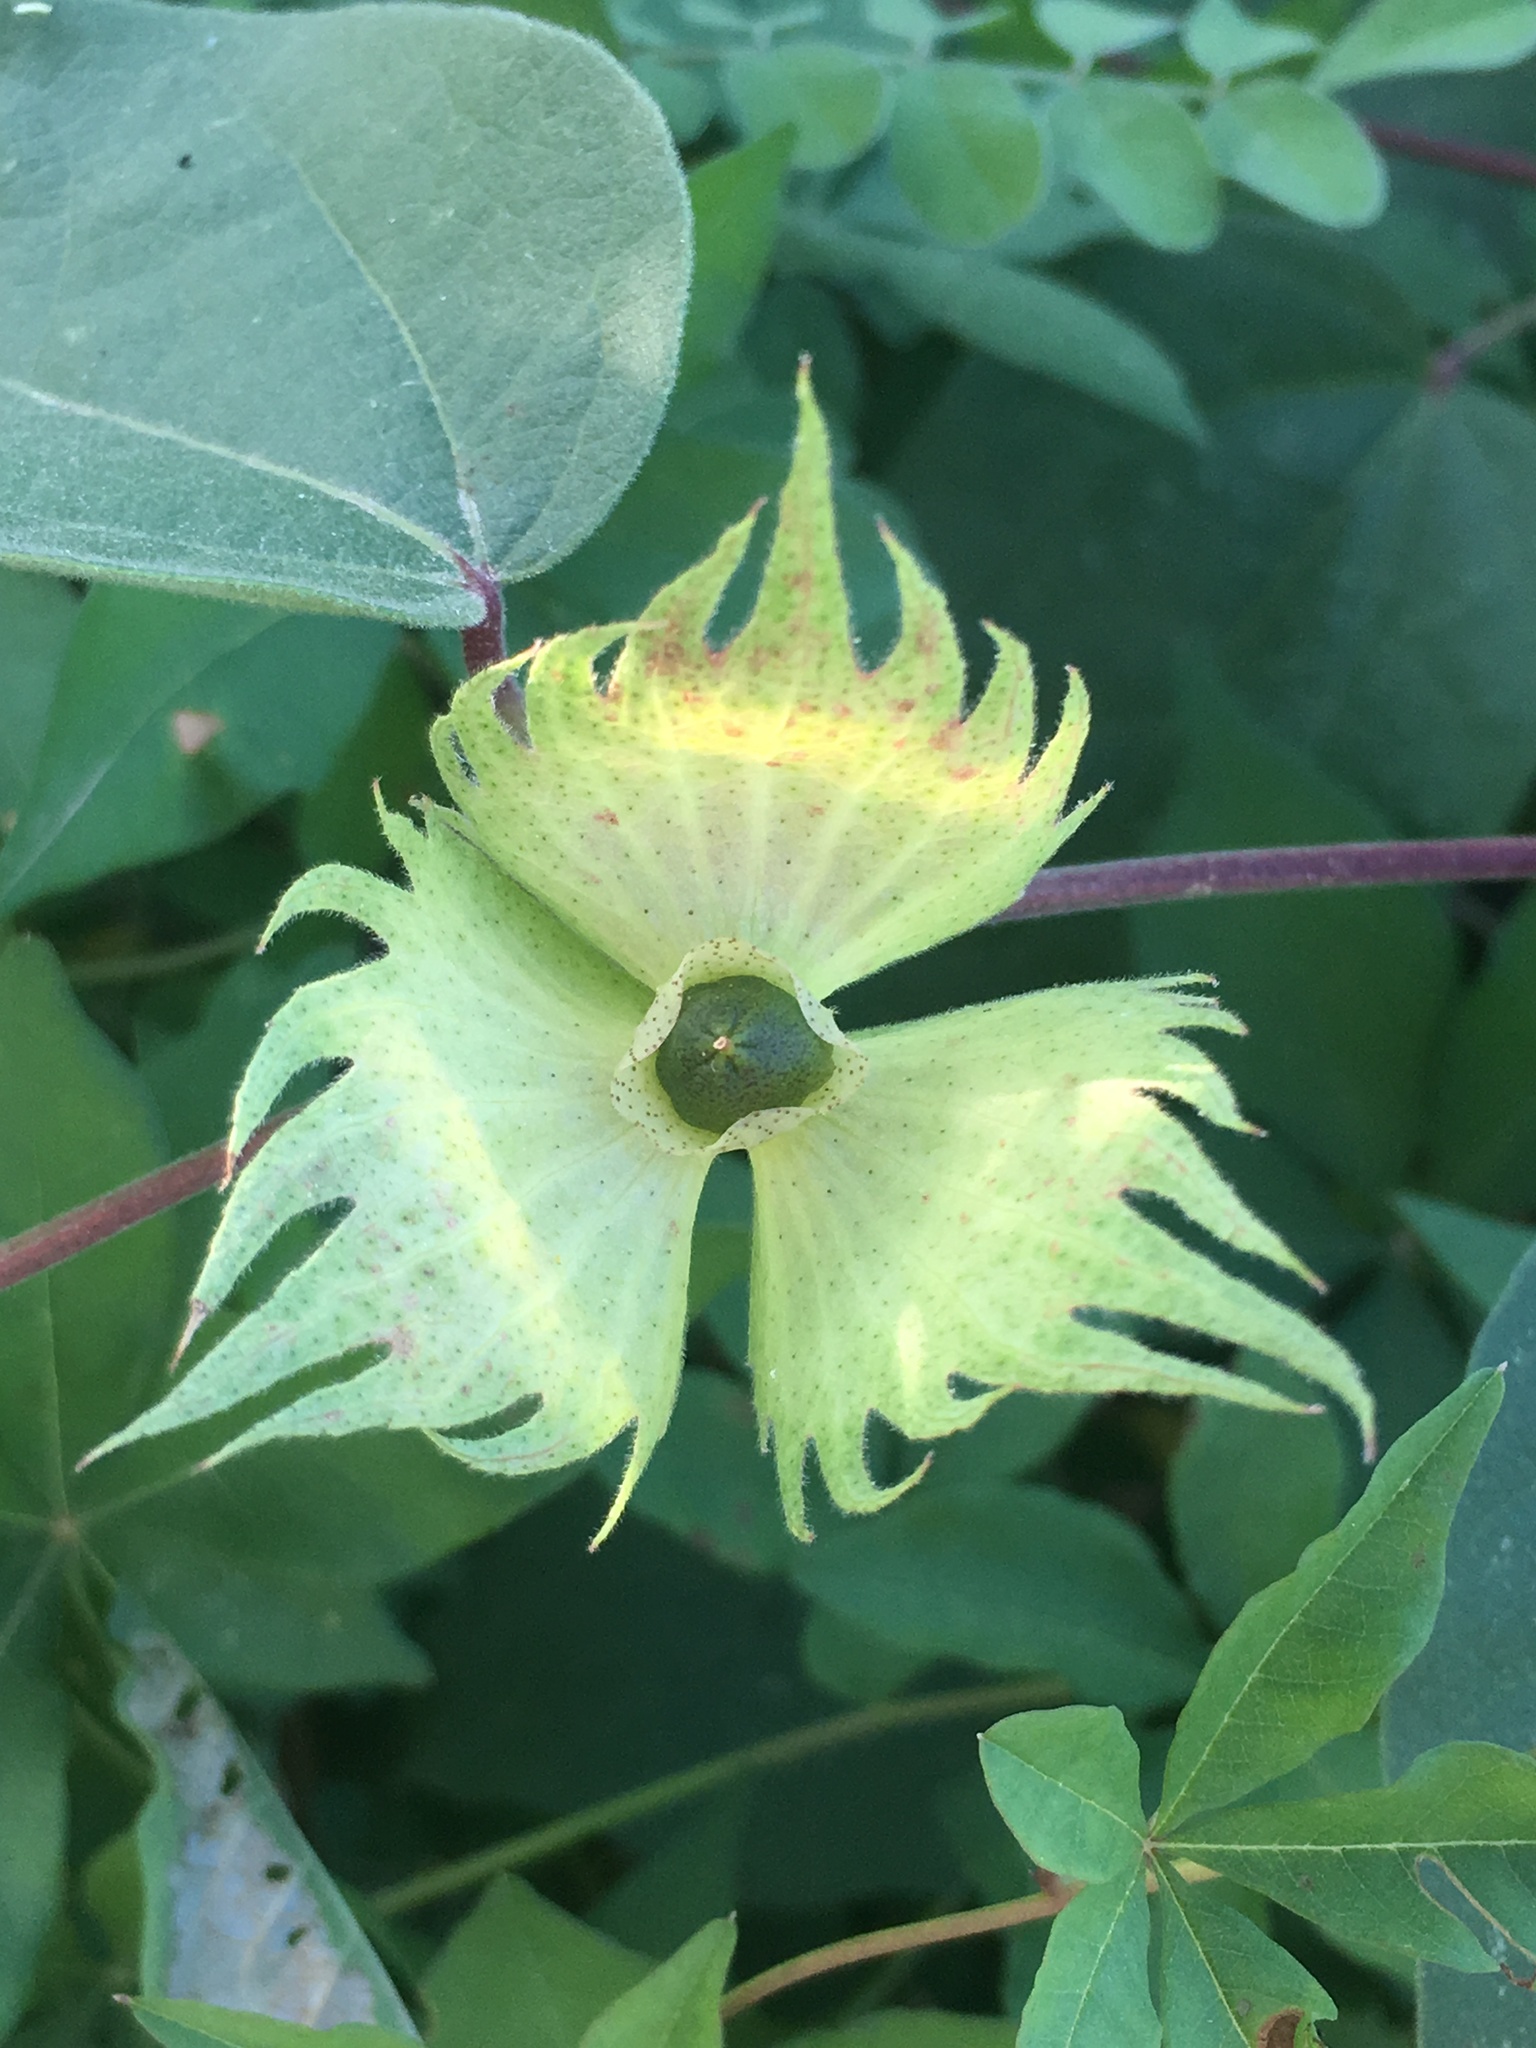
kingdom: Plantae
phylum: Tracheophyta
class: Magnoliopsida
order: Malvales
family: Malvaceae
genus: Gossypium
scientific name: Gossypium klotzschianum
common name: Galapagos cotton
